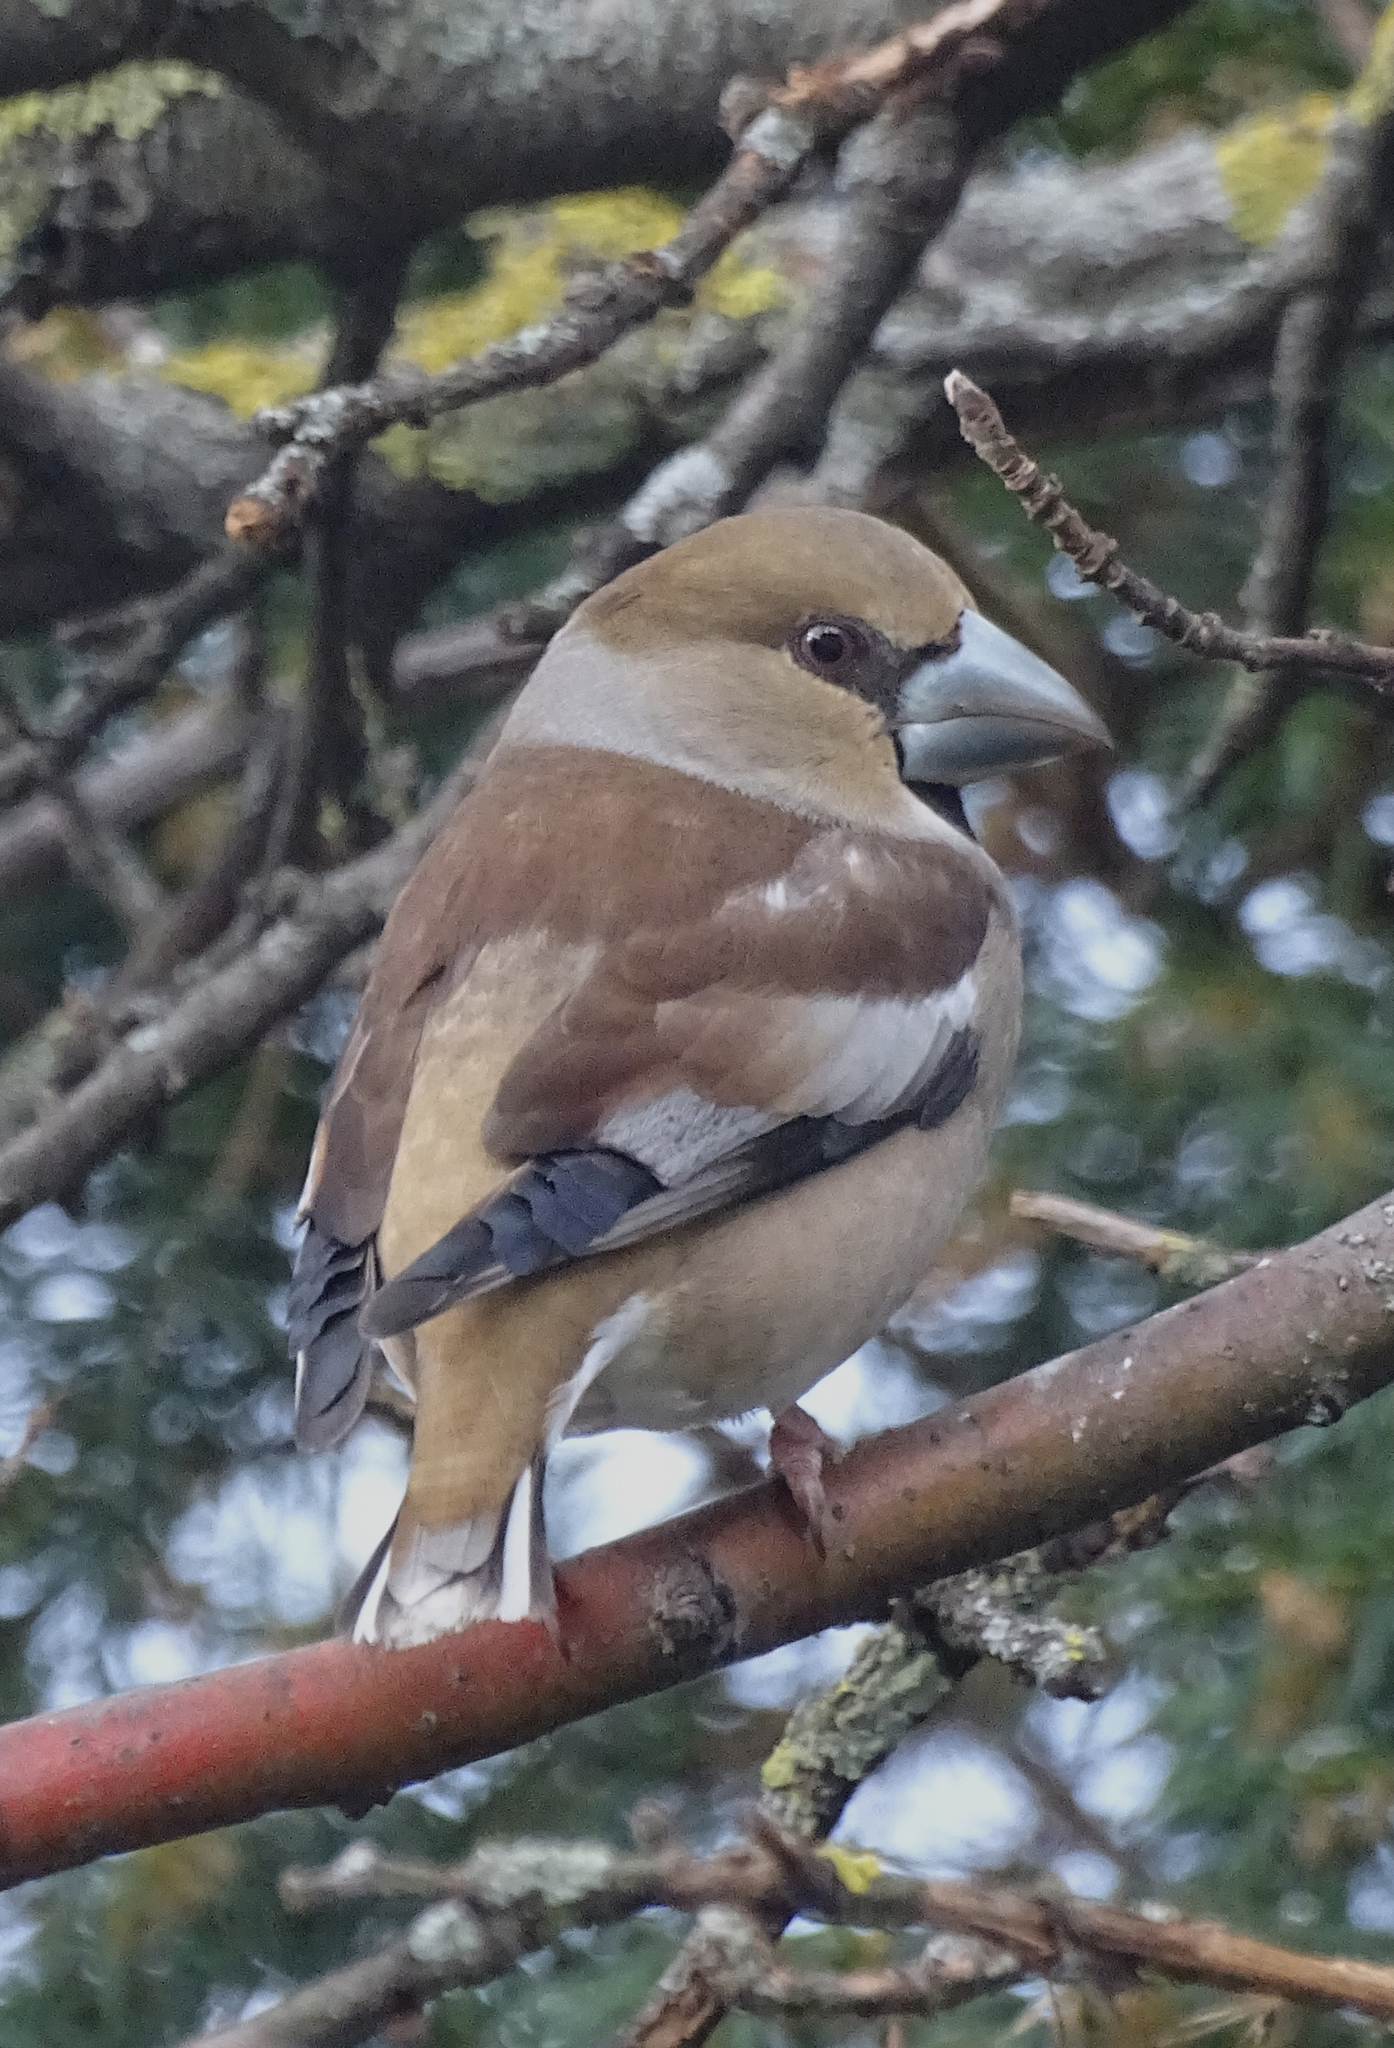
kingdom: Animalia
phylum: Chordata
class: Aves
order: Passeriformes
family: Fringillidae
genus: Coccothraustes
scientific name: Coccothraustes coccothraustes
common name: Hawfinch
